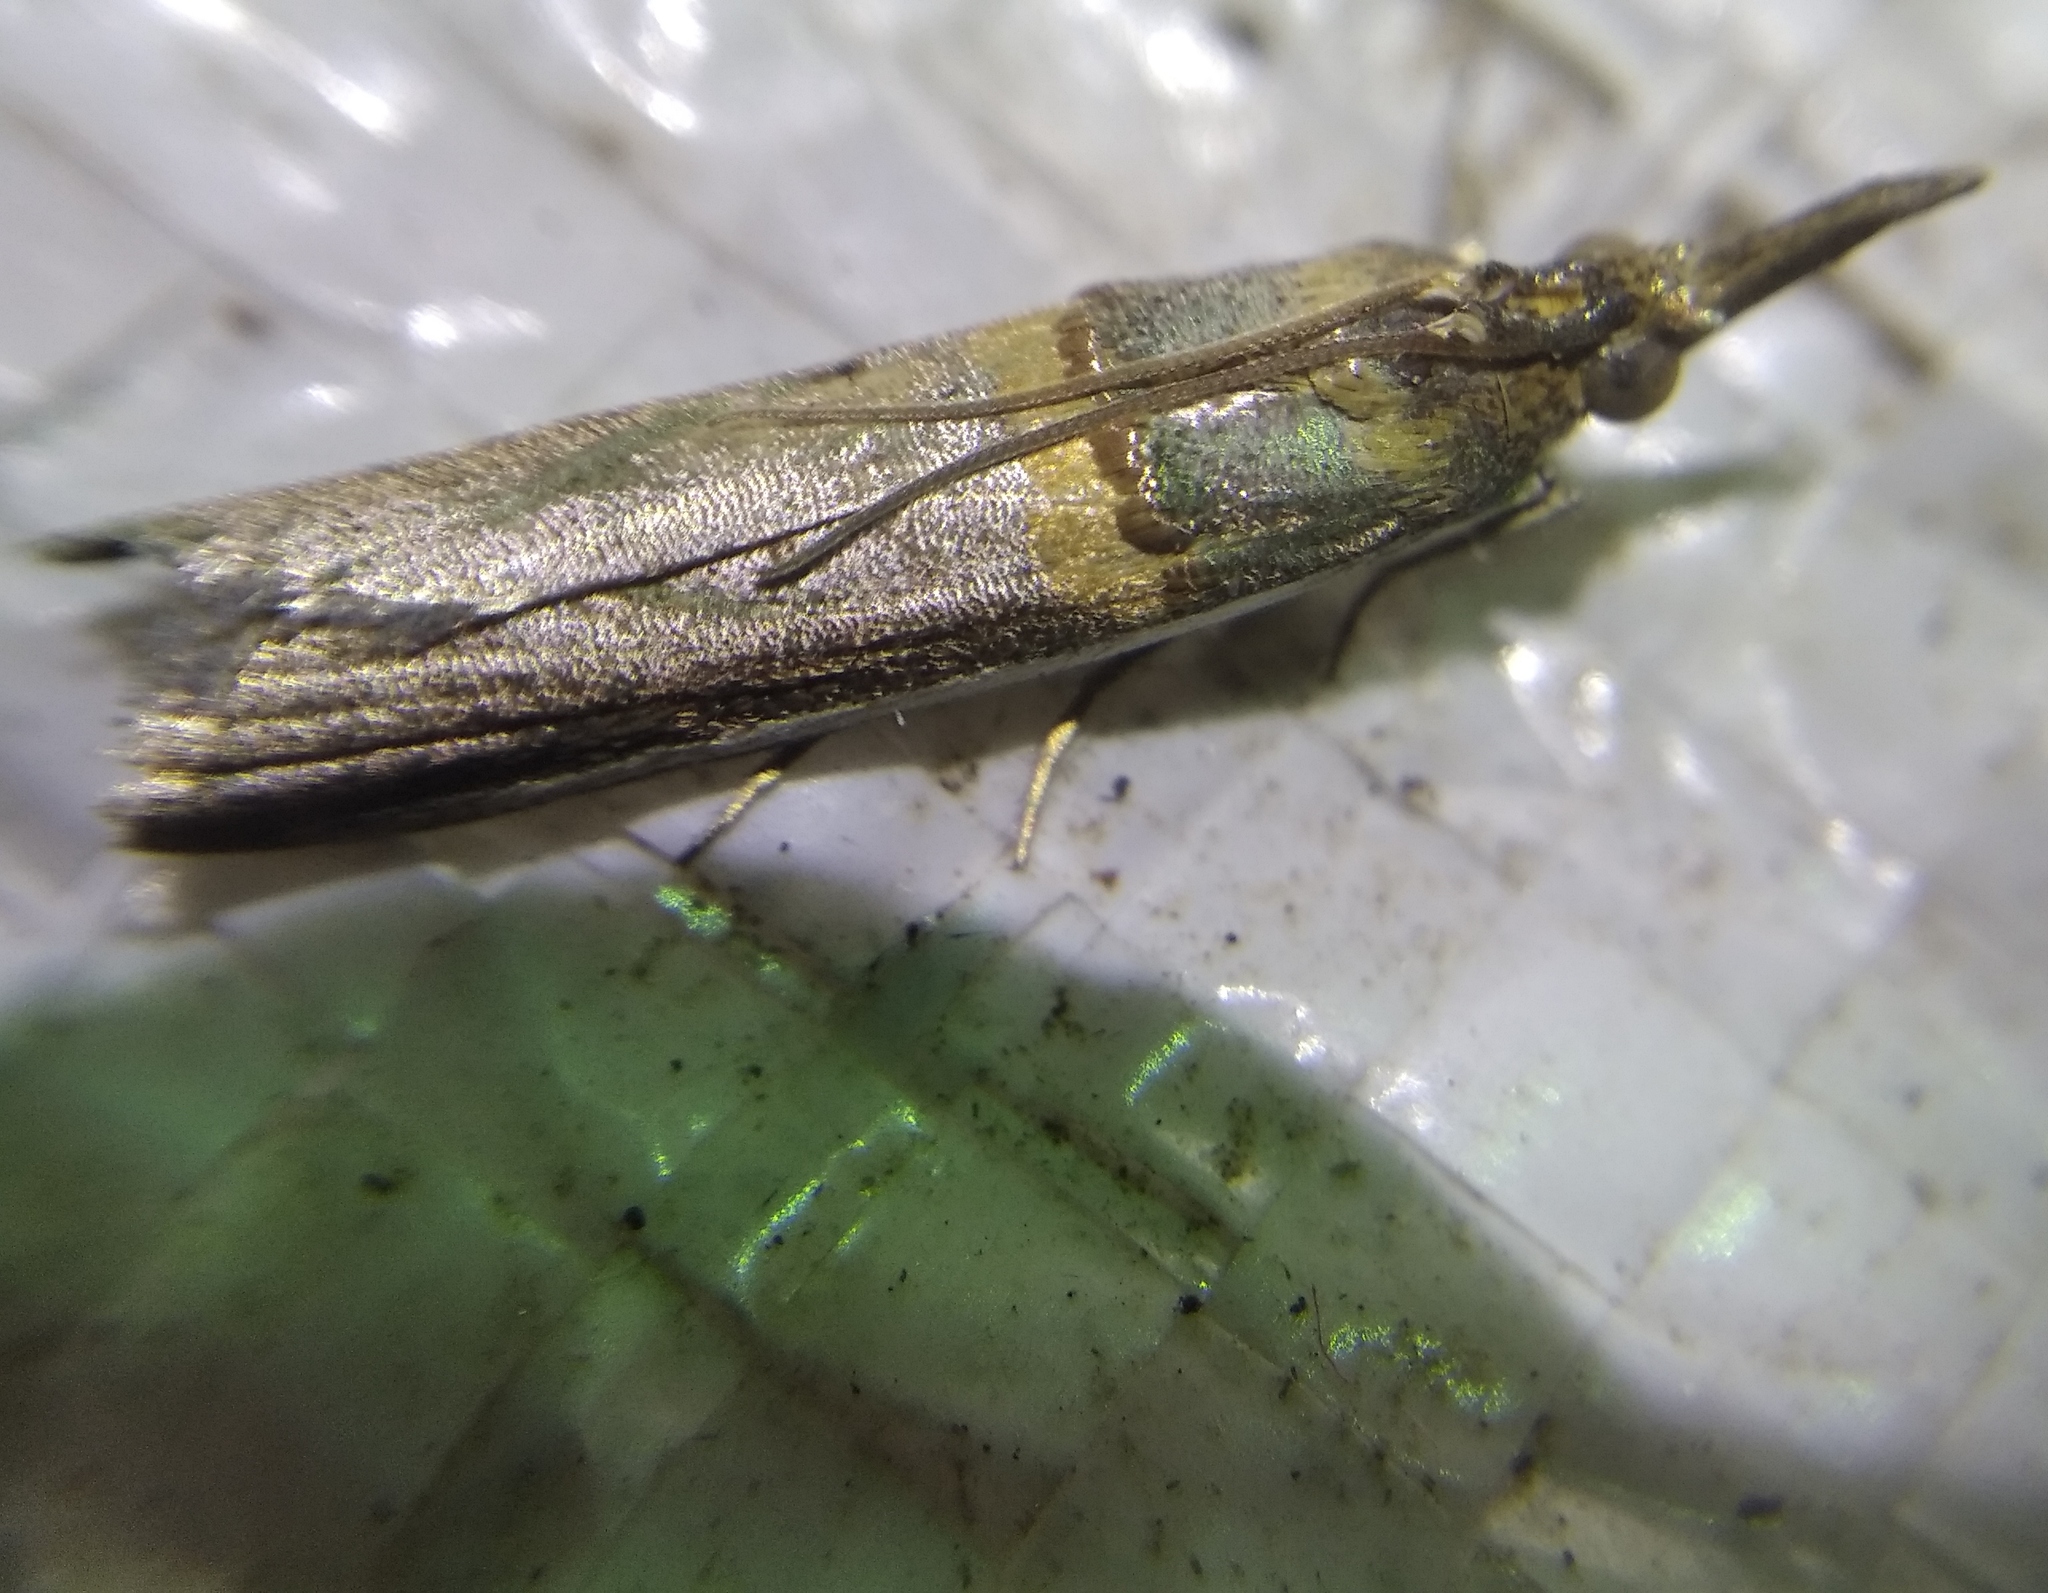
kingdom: Animalia
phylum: Arthropoda
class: Insecta
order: Lepidoptera
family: Pyralidae
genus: Etiella
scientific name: Etiella zinckenella
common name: Gold-banded etiella moth
